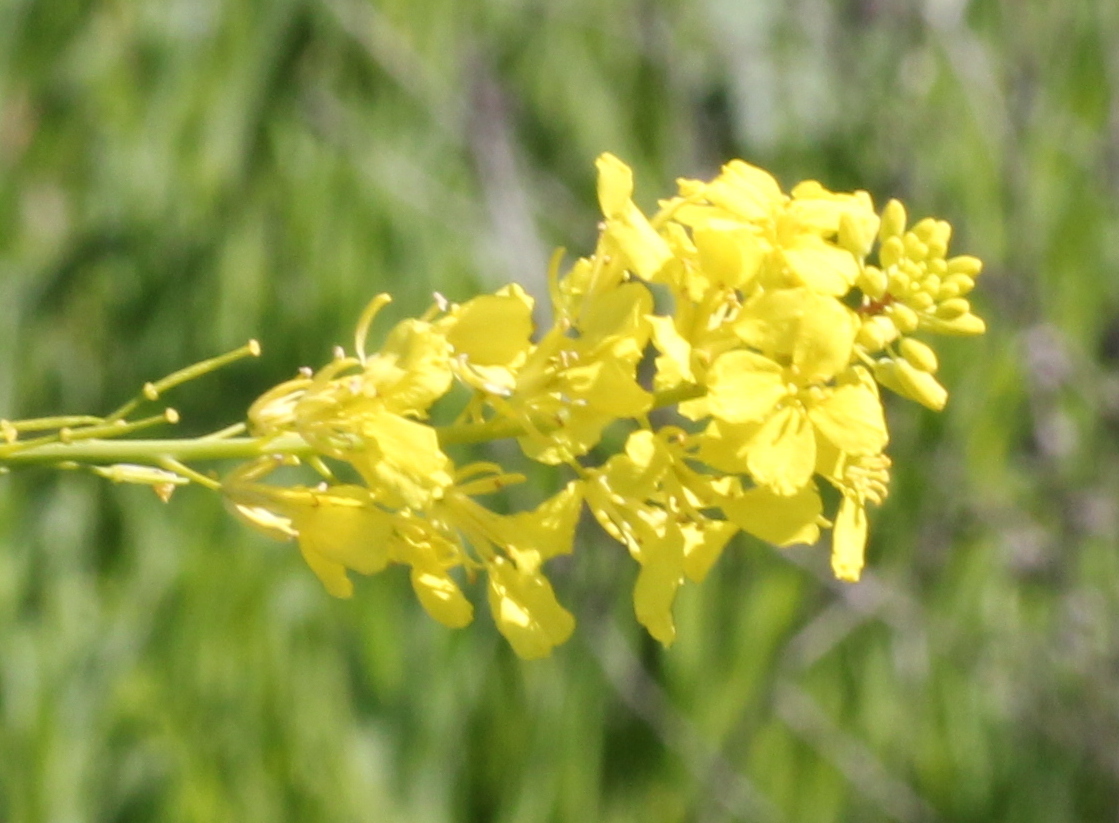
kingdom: Plantae
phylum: Tracheophyta
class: Magnoliopsida
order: Brassicales
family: Brassicaceae
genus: Brassica
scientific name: Brassica nigra
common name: Black mustard
